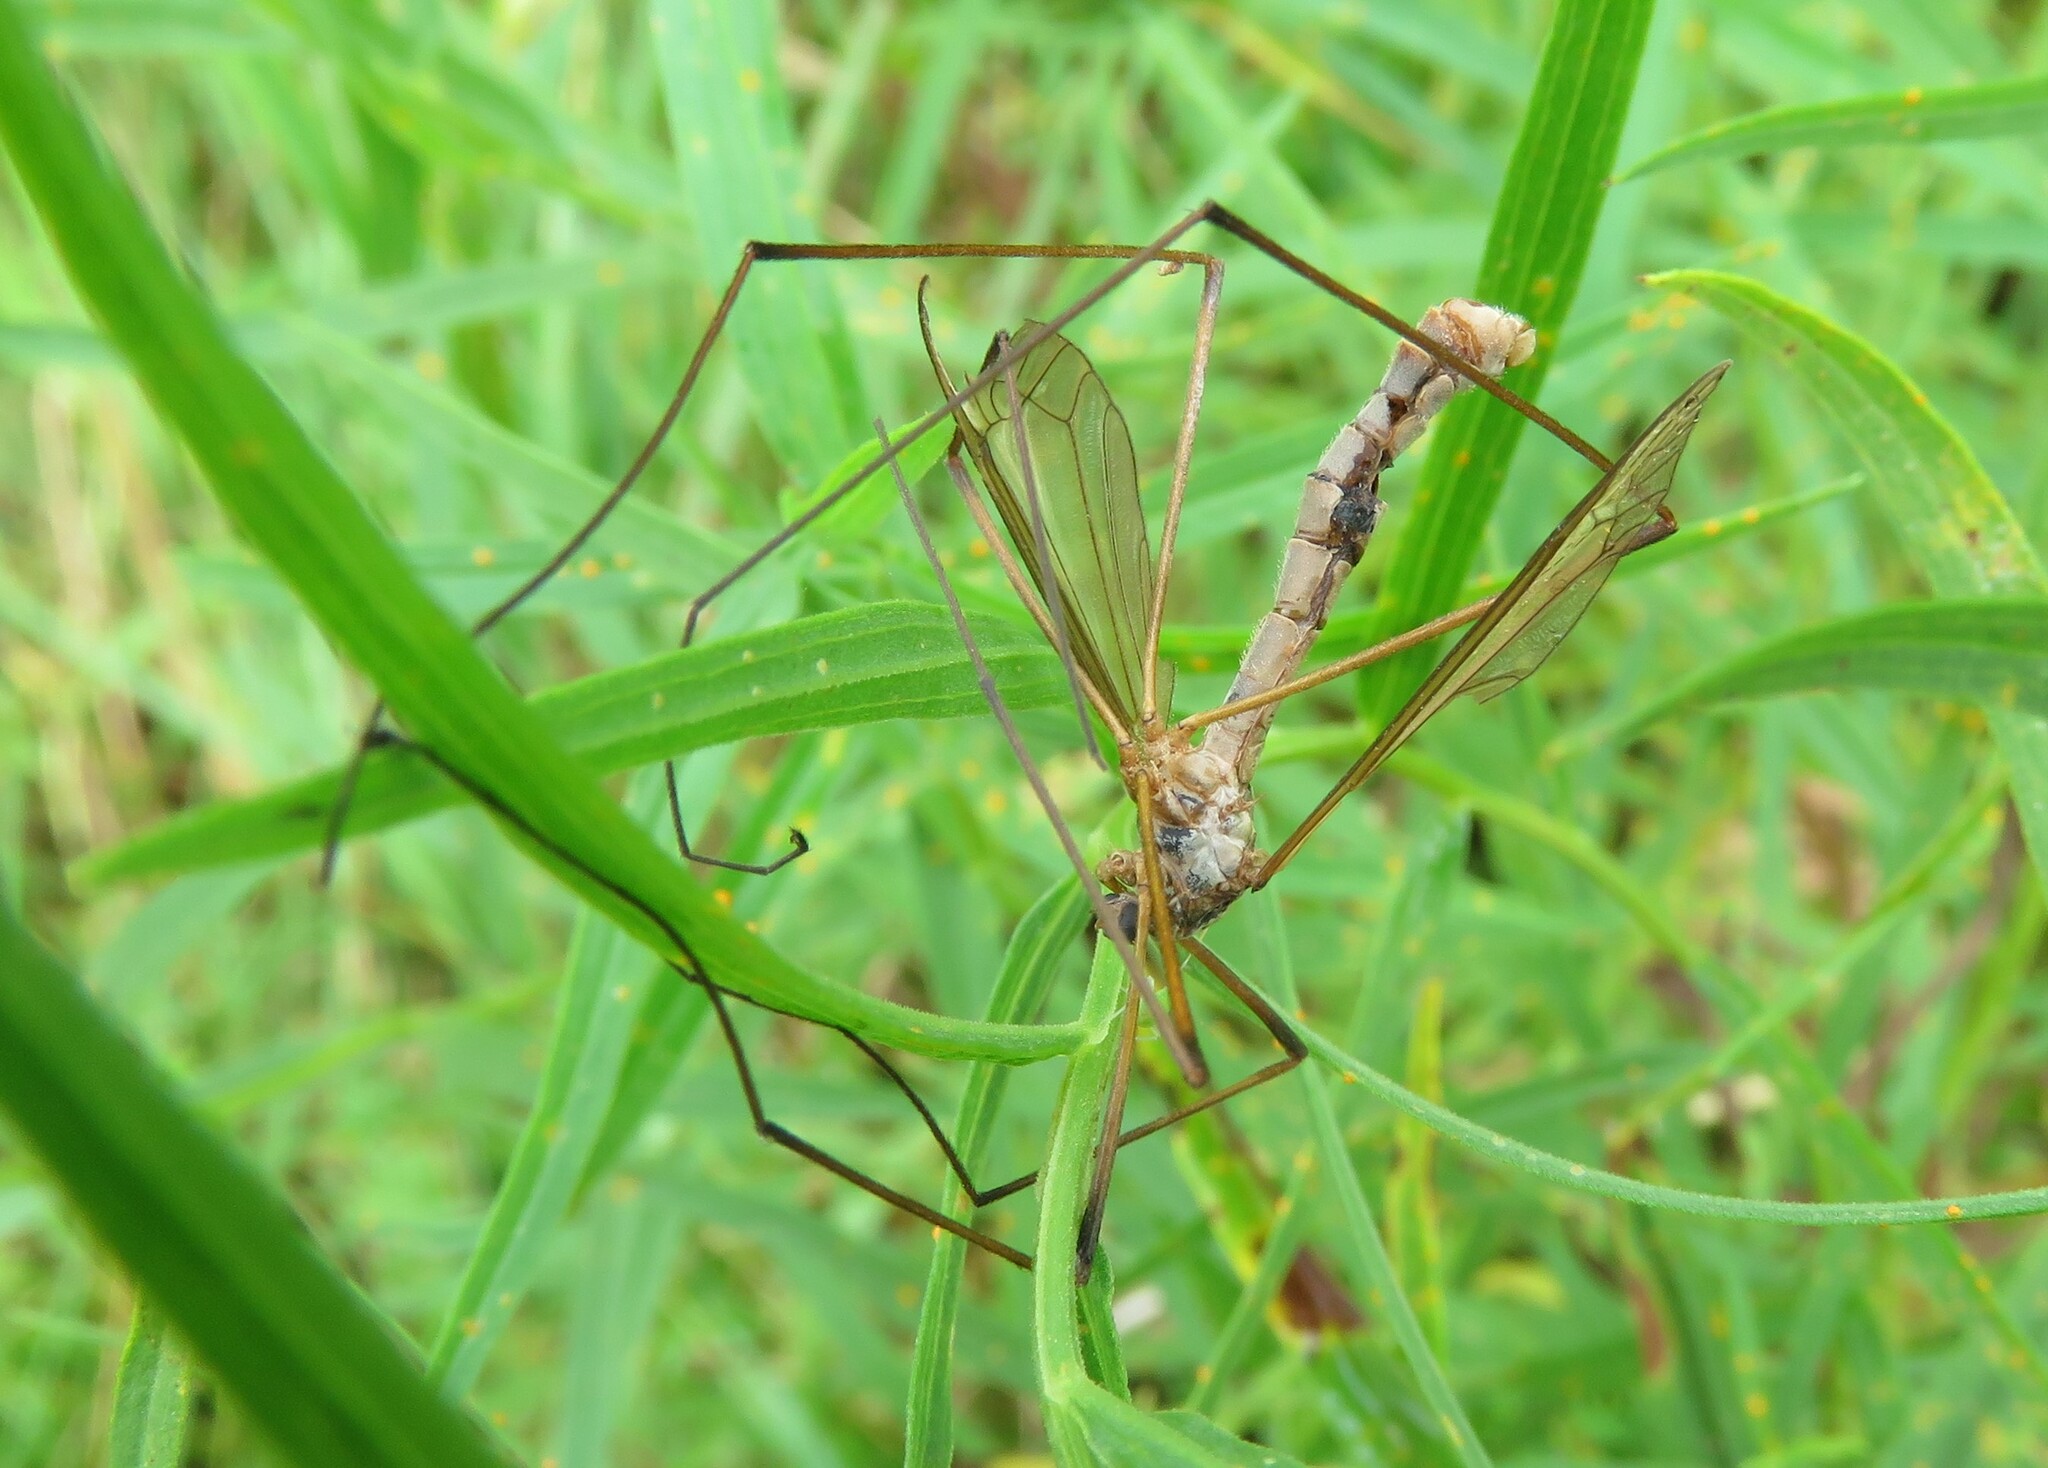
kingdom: Animalia
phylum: Arthropoda
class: Insecta
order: Diptera
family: Tipulidae
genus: Tipula
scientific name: Tipula paludosa
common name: European cranefly
